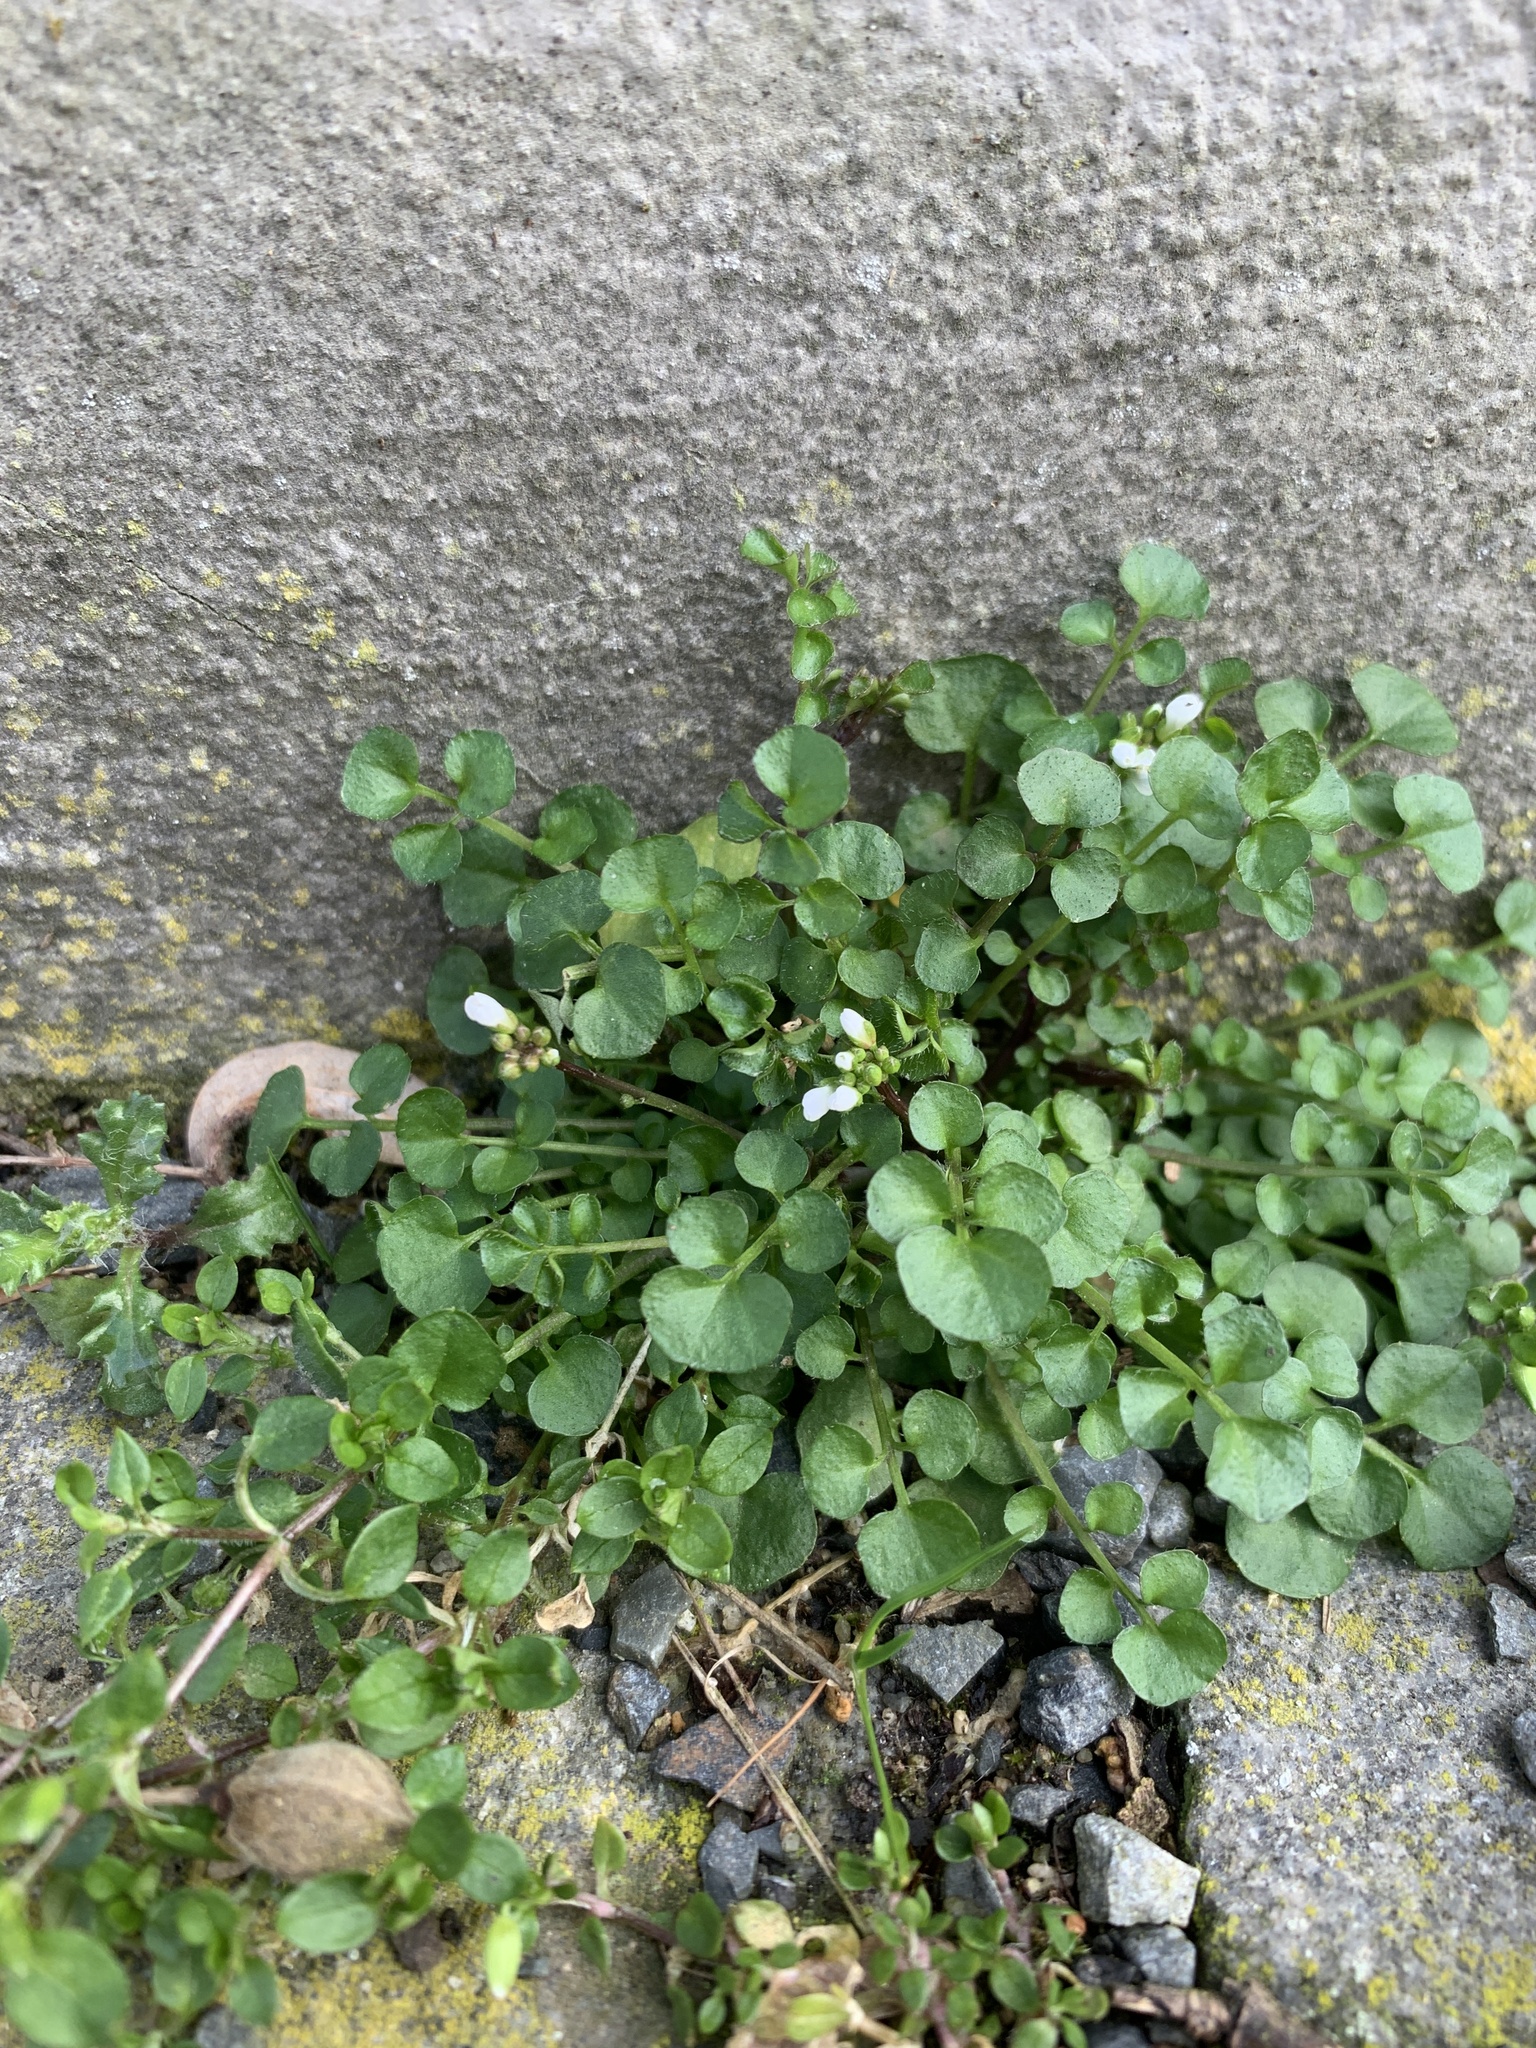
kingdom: Plantae
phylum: Tracheophyta
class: Magnoliopsida
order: Brassicales
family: Brassicaceae
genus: Cardamine
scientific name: Cardamine hirsuta
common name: Hairy bittercress
